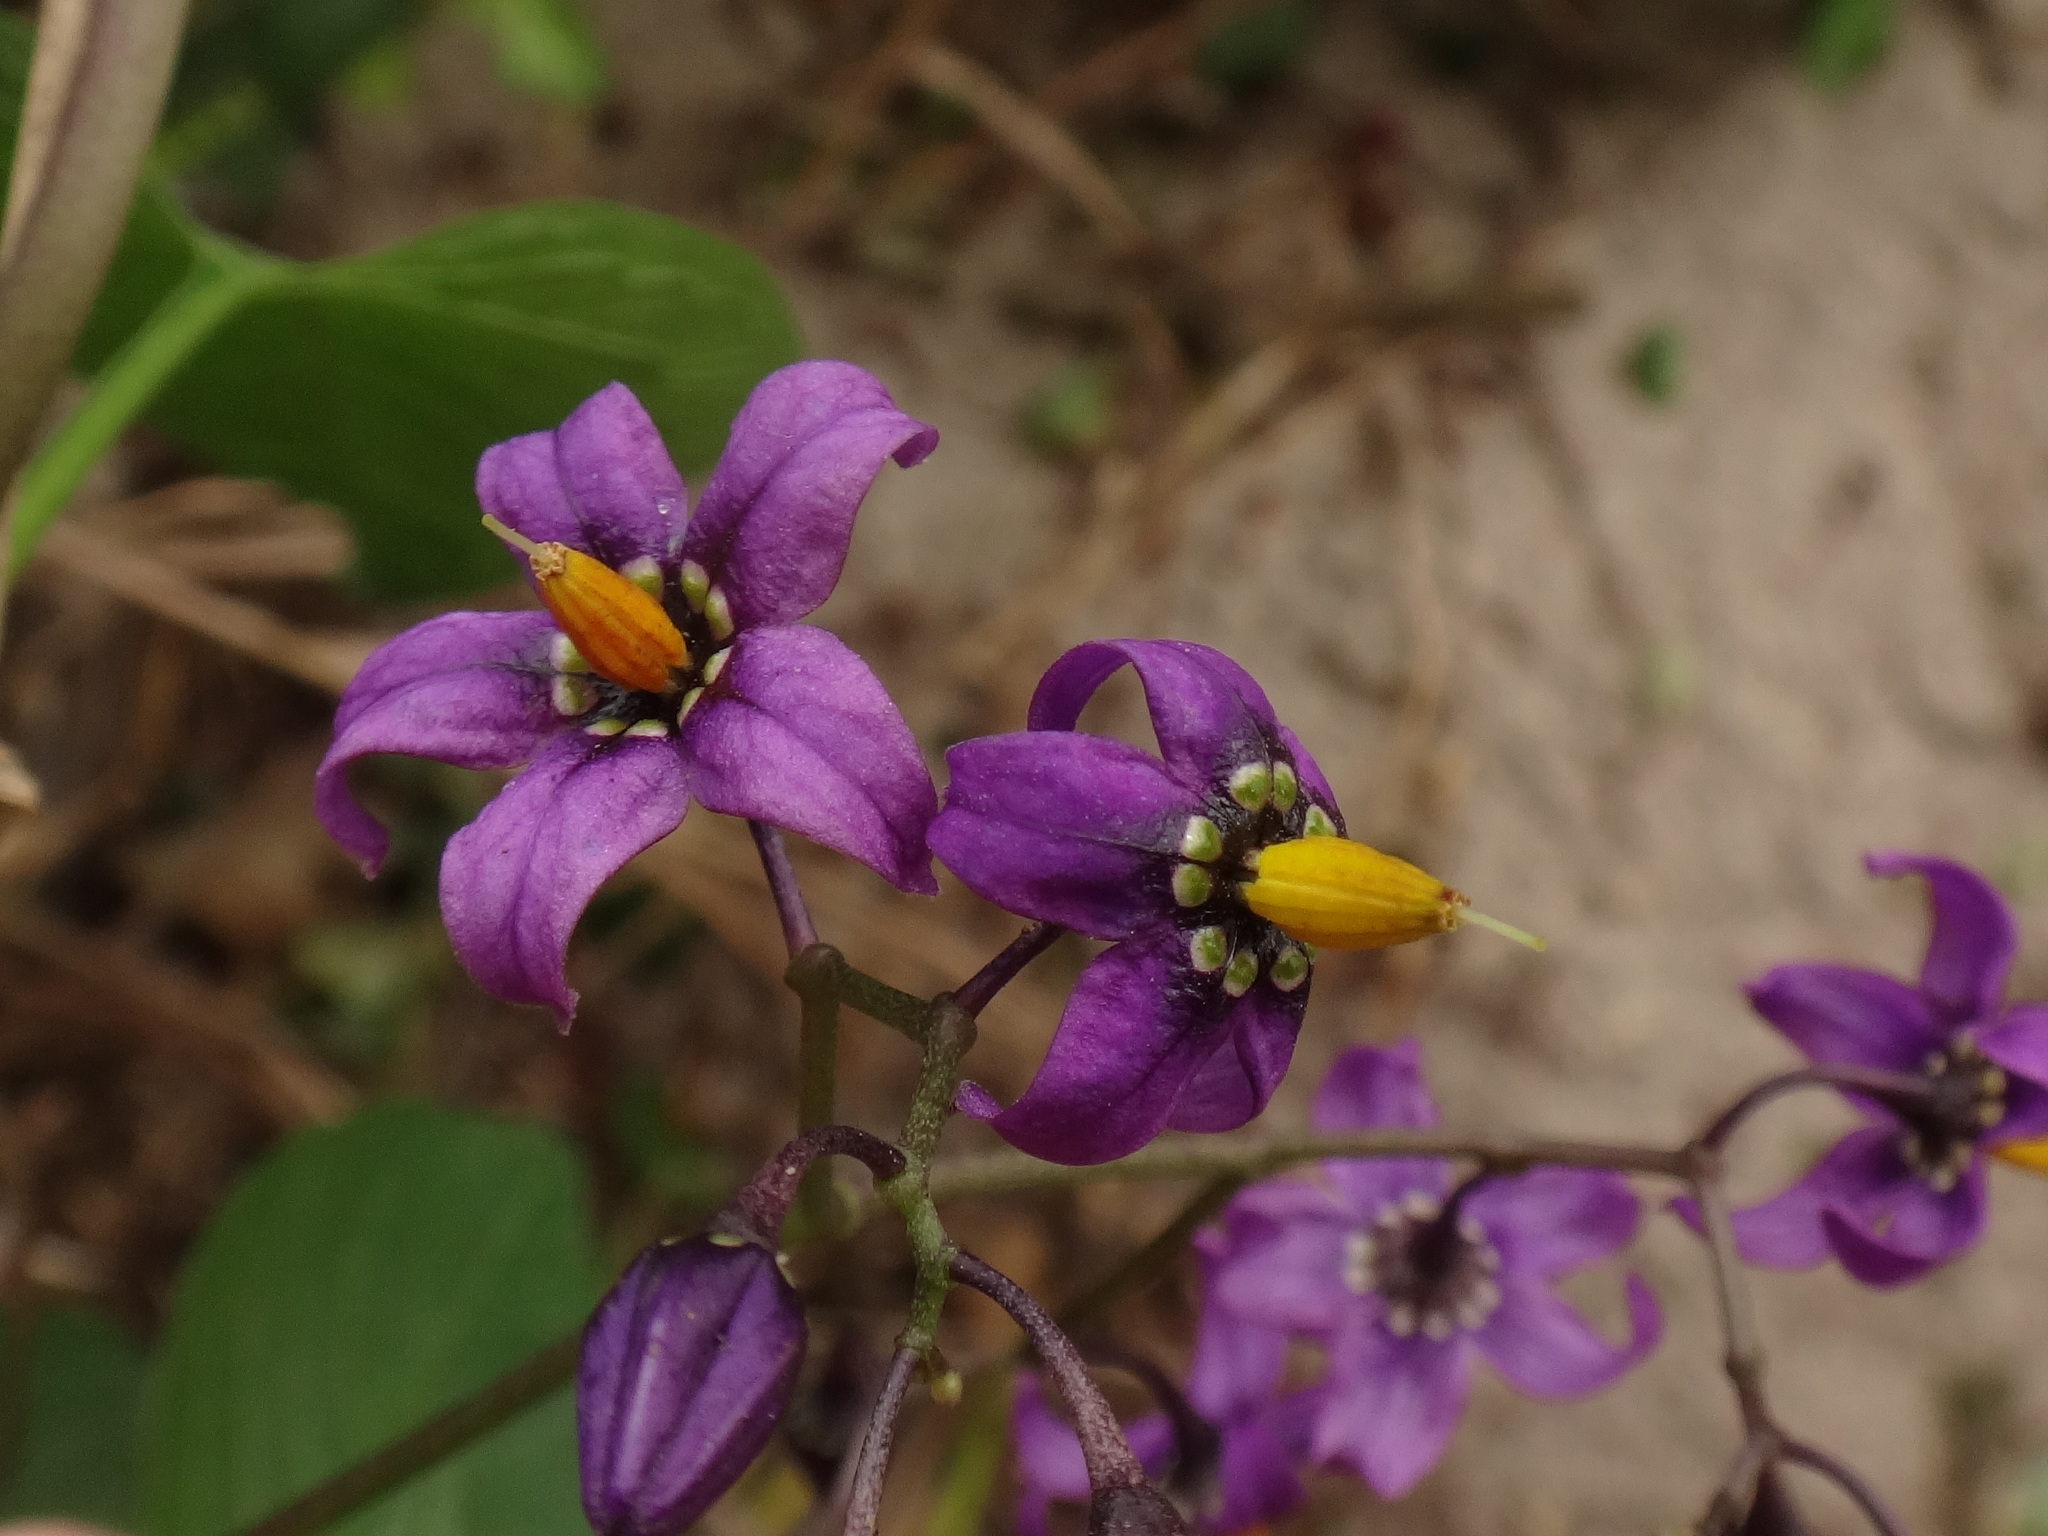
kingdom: Plantae
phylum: Tracheophyta
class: Magnoliopsida
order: Solanales
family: Solanaceae
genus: Solanum
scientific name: Solanum dulcamara
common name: Climbing nightshade
